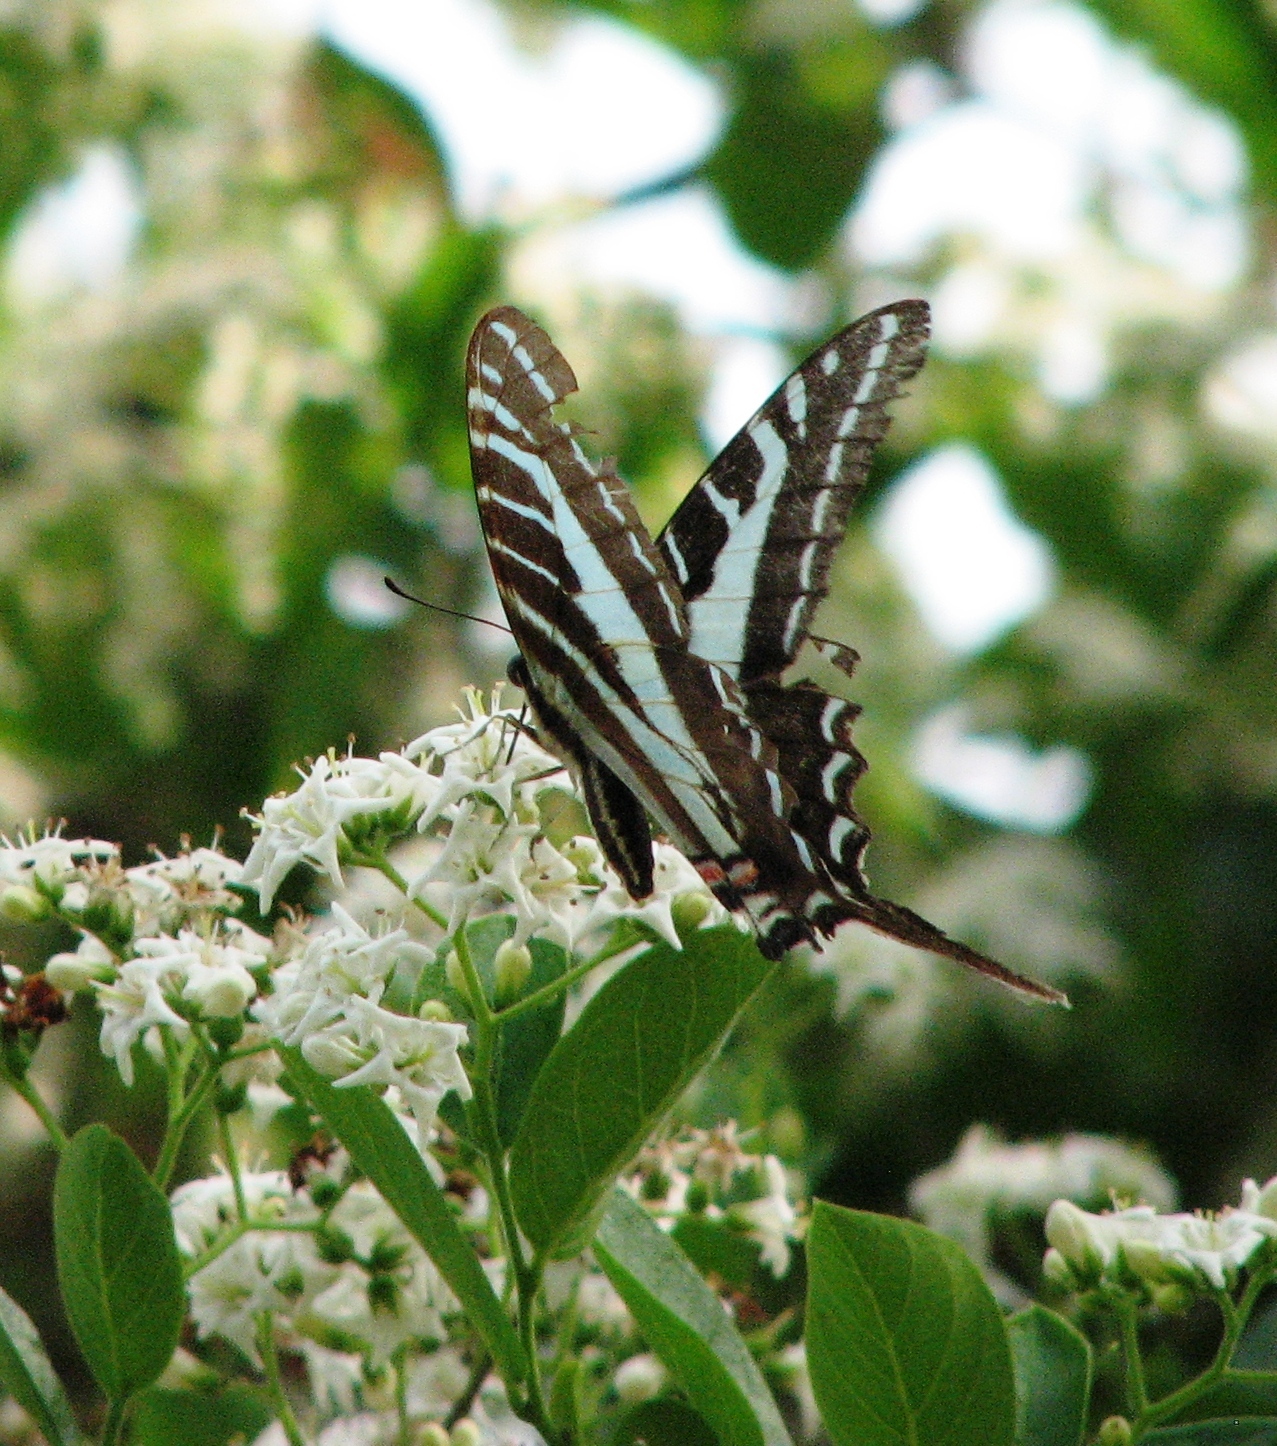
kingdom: Animalia
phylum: Arthropoda
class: Insecta
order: Lepidoptera
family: Papilionidae
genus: Protographium
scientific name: Protographium philolaus
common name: Dark zebra swallowtail
